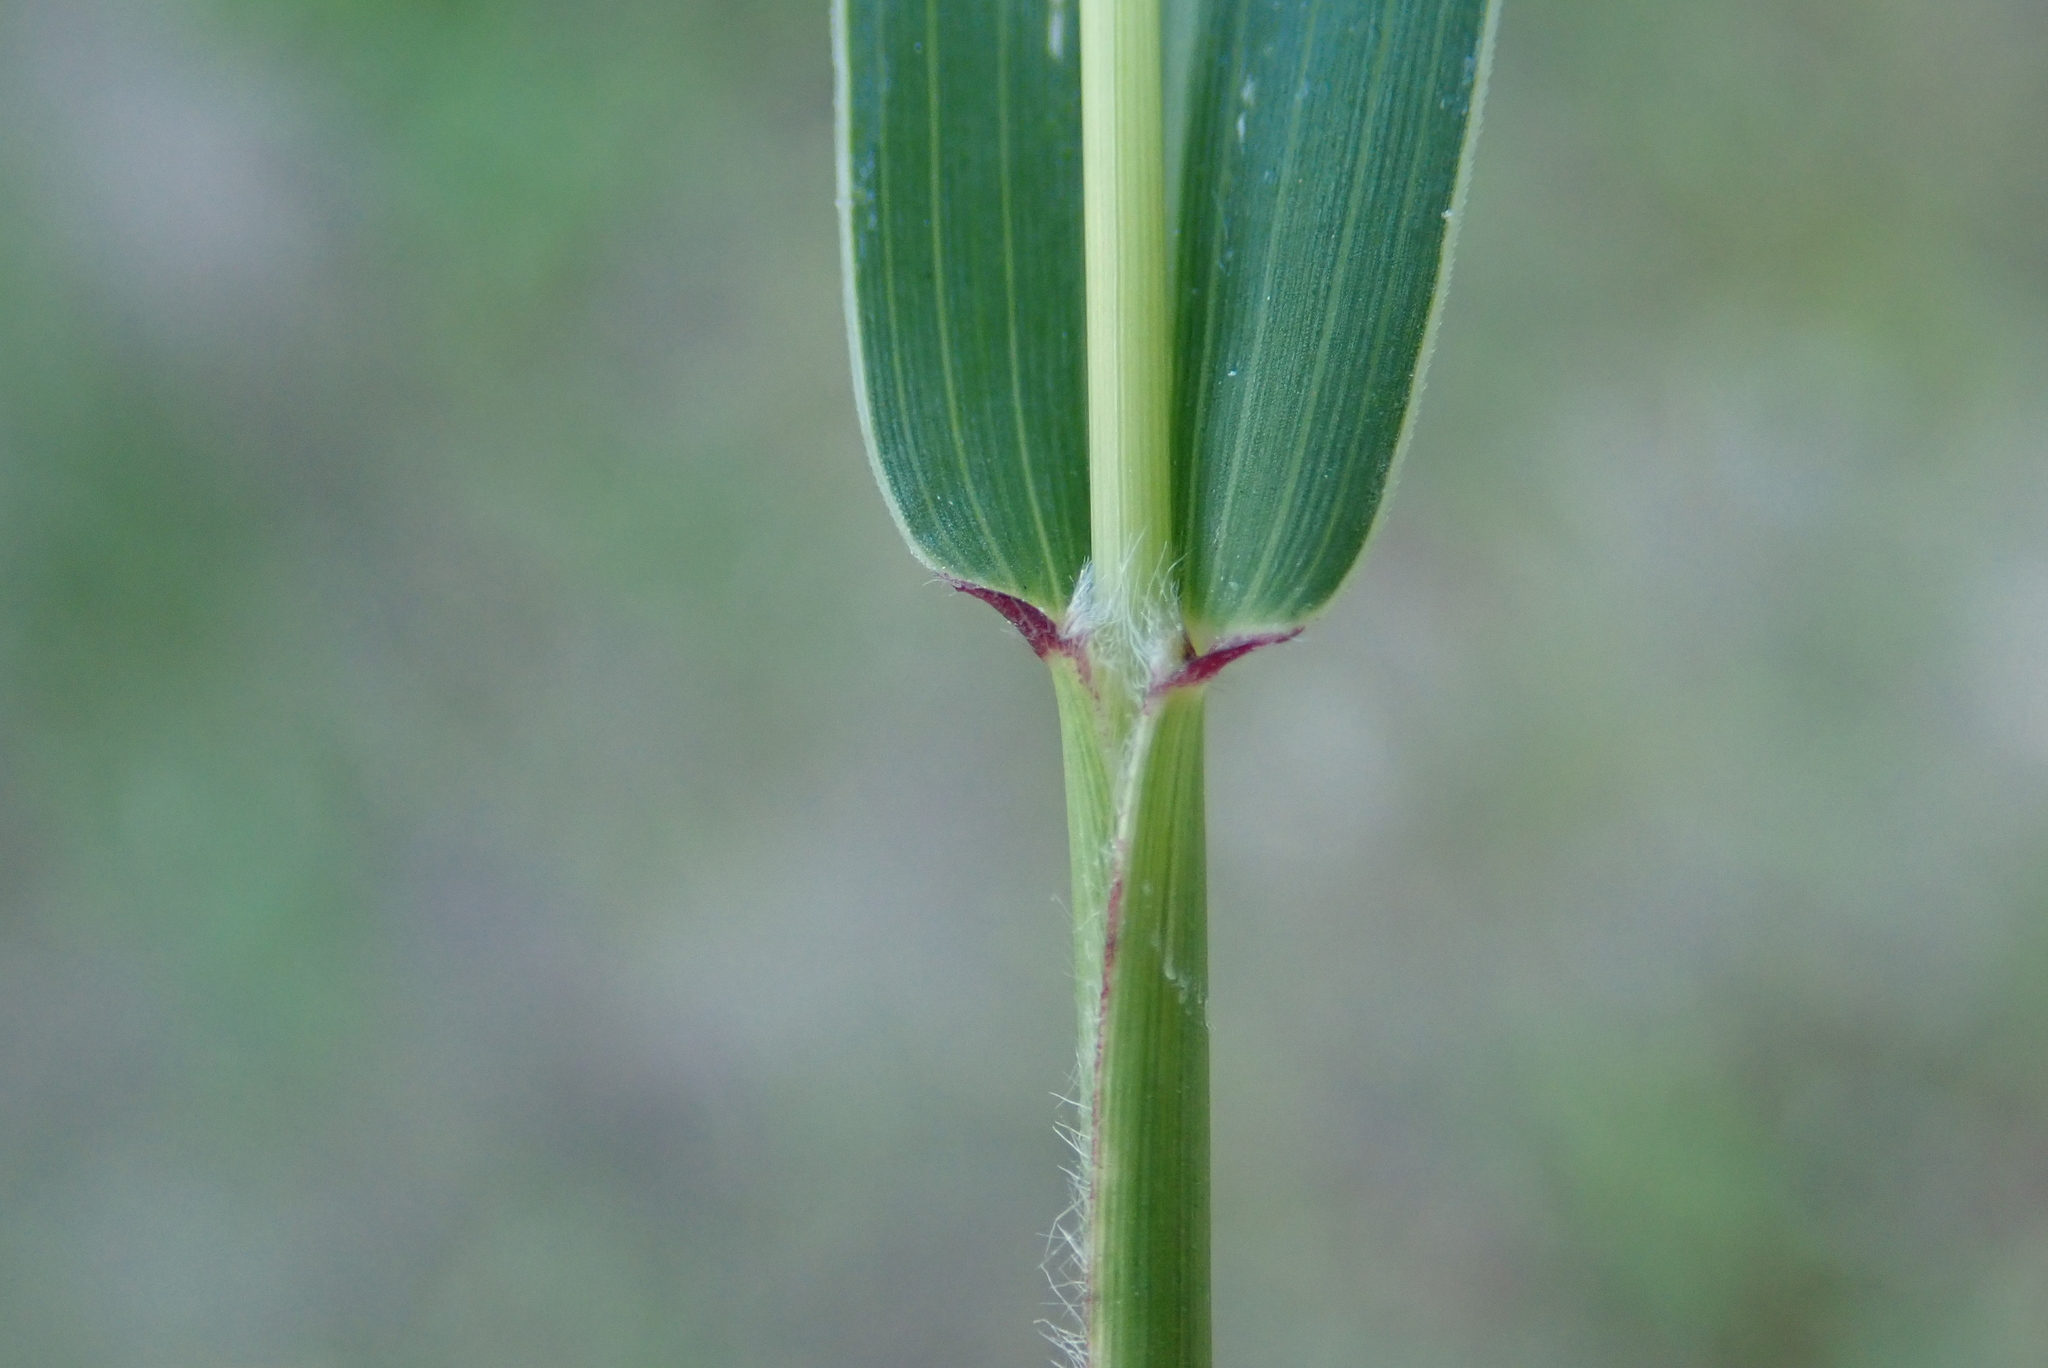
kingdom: Plantae
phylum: Tracheophyta
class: Liliopsida
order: Poales
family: Poaceae
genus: Setaria
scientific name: Setaria viridis
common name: Green bristlegrass
